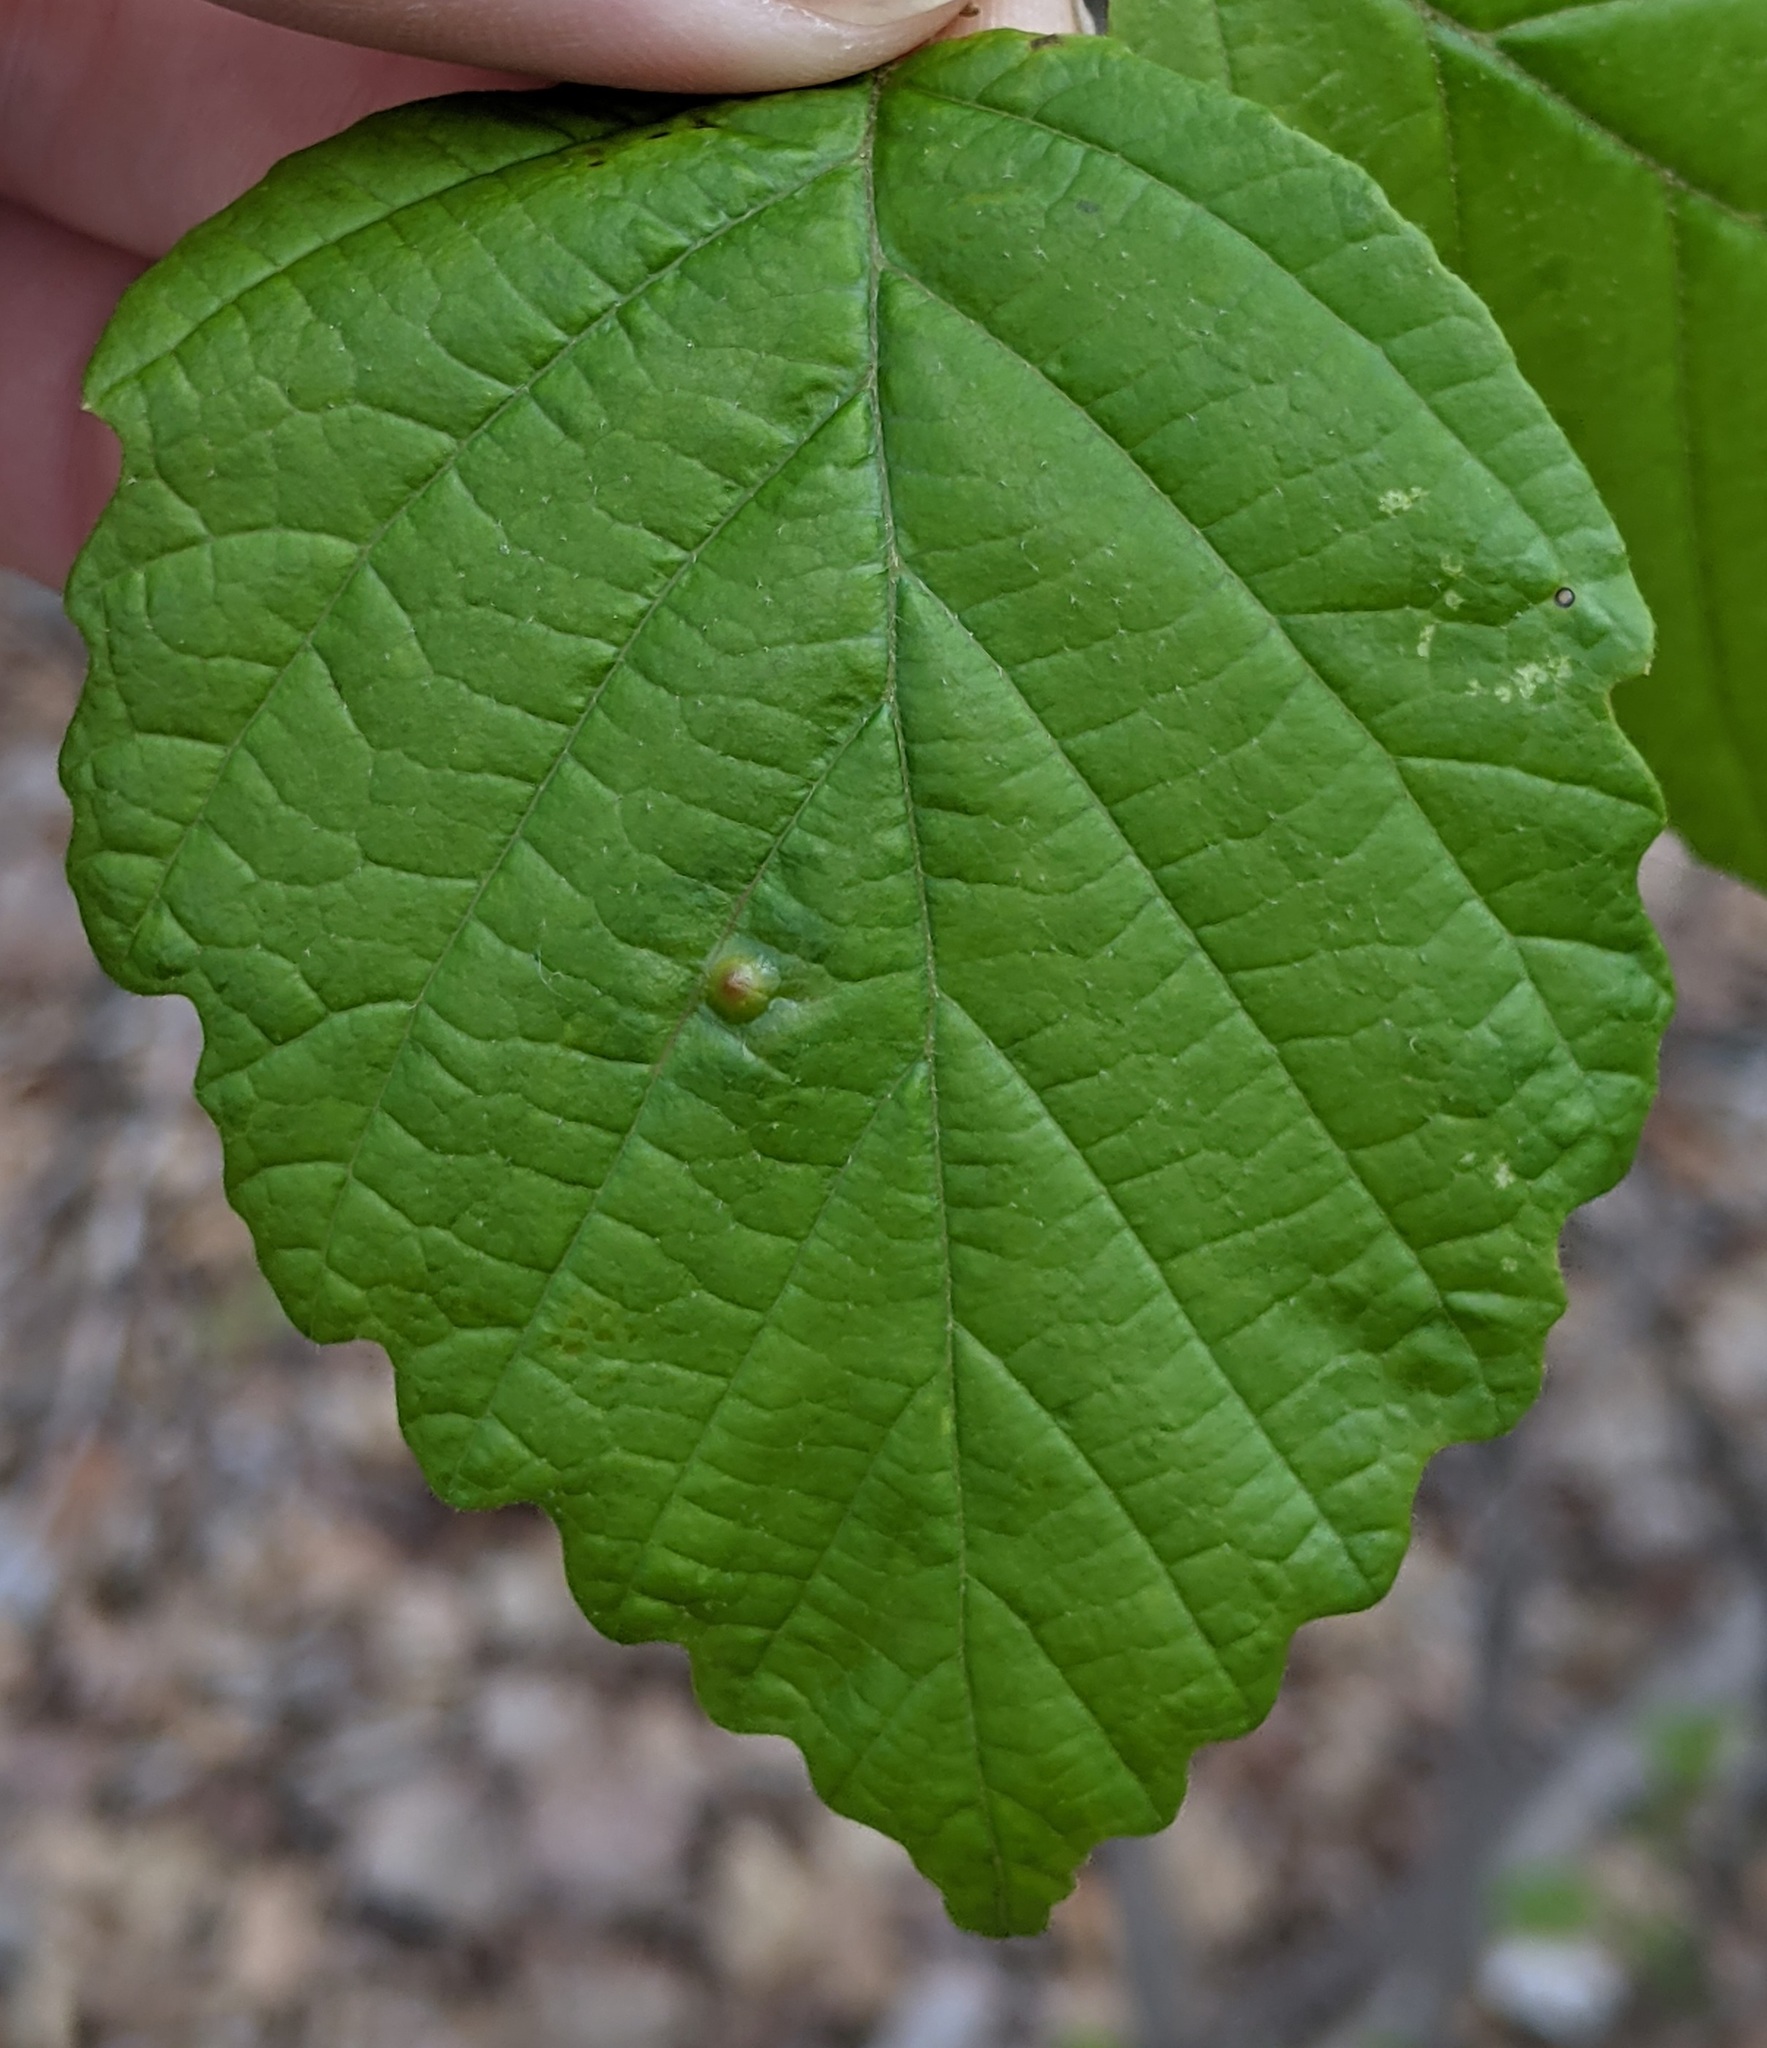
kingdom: Animalia
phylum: Arthropoda
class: Insecta
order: Hemiptera
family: Aphididae
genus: Hormaphis
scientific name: Hormaphis hamamelidis
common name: Witch-hazel cone gall aphid
